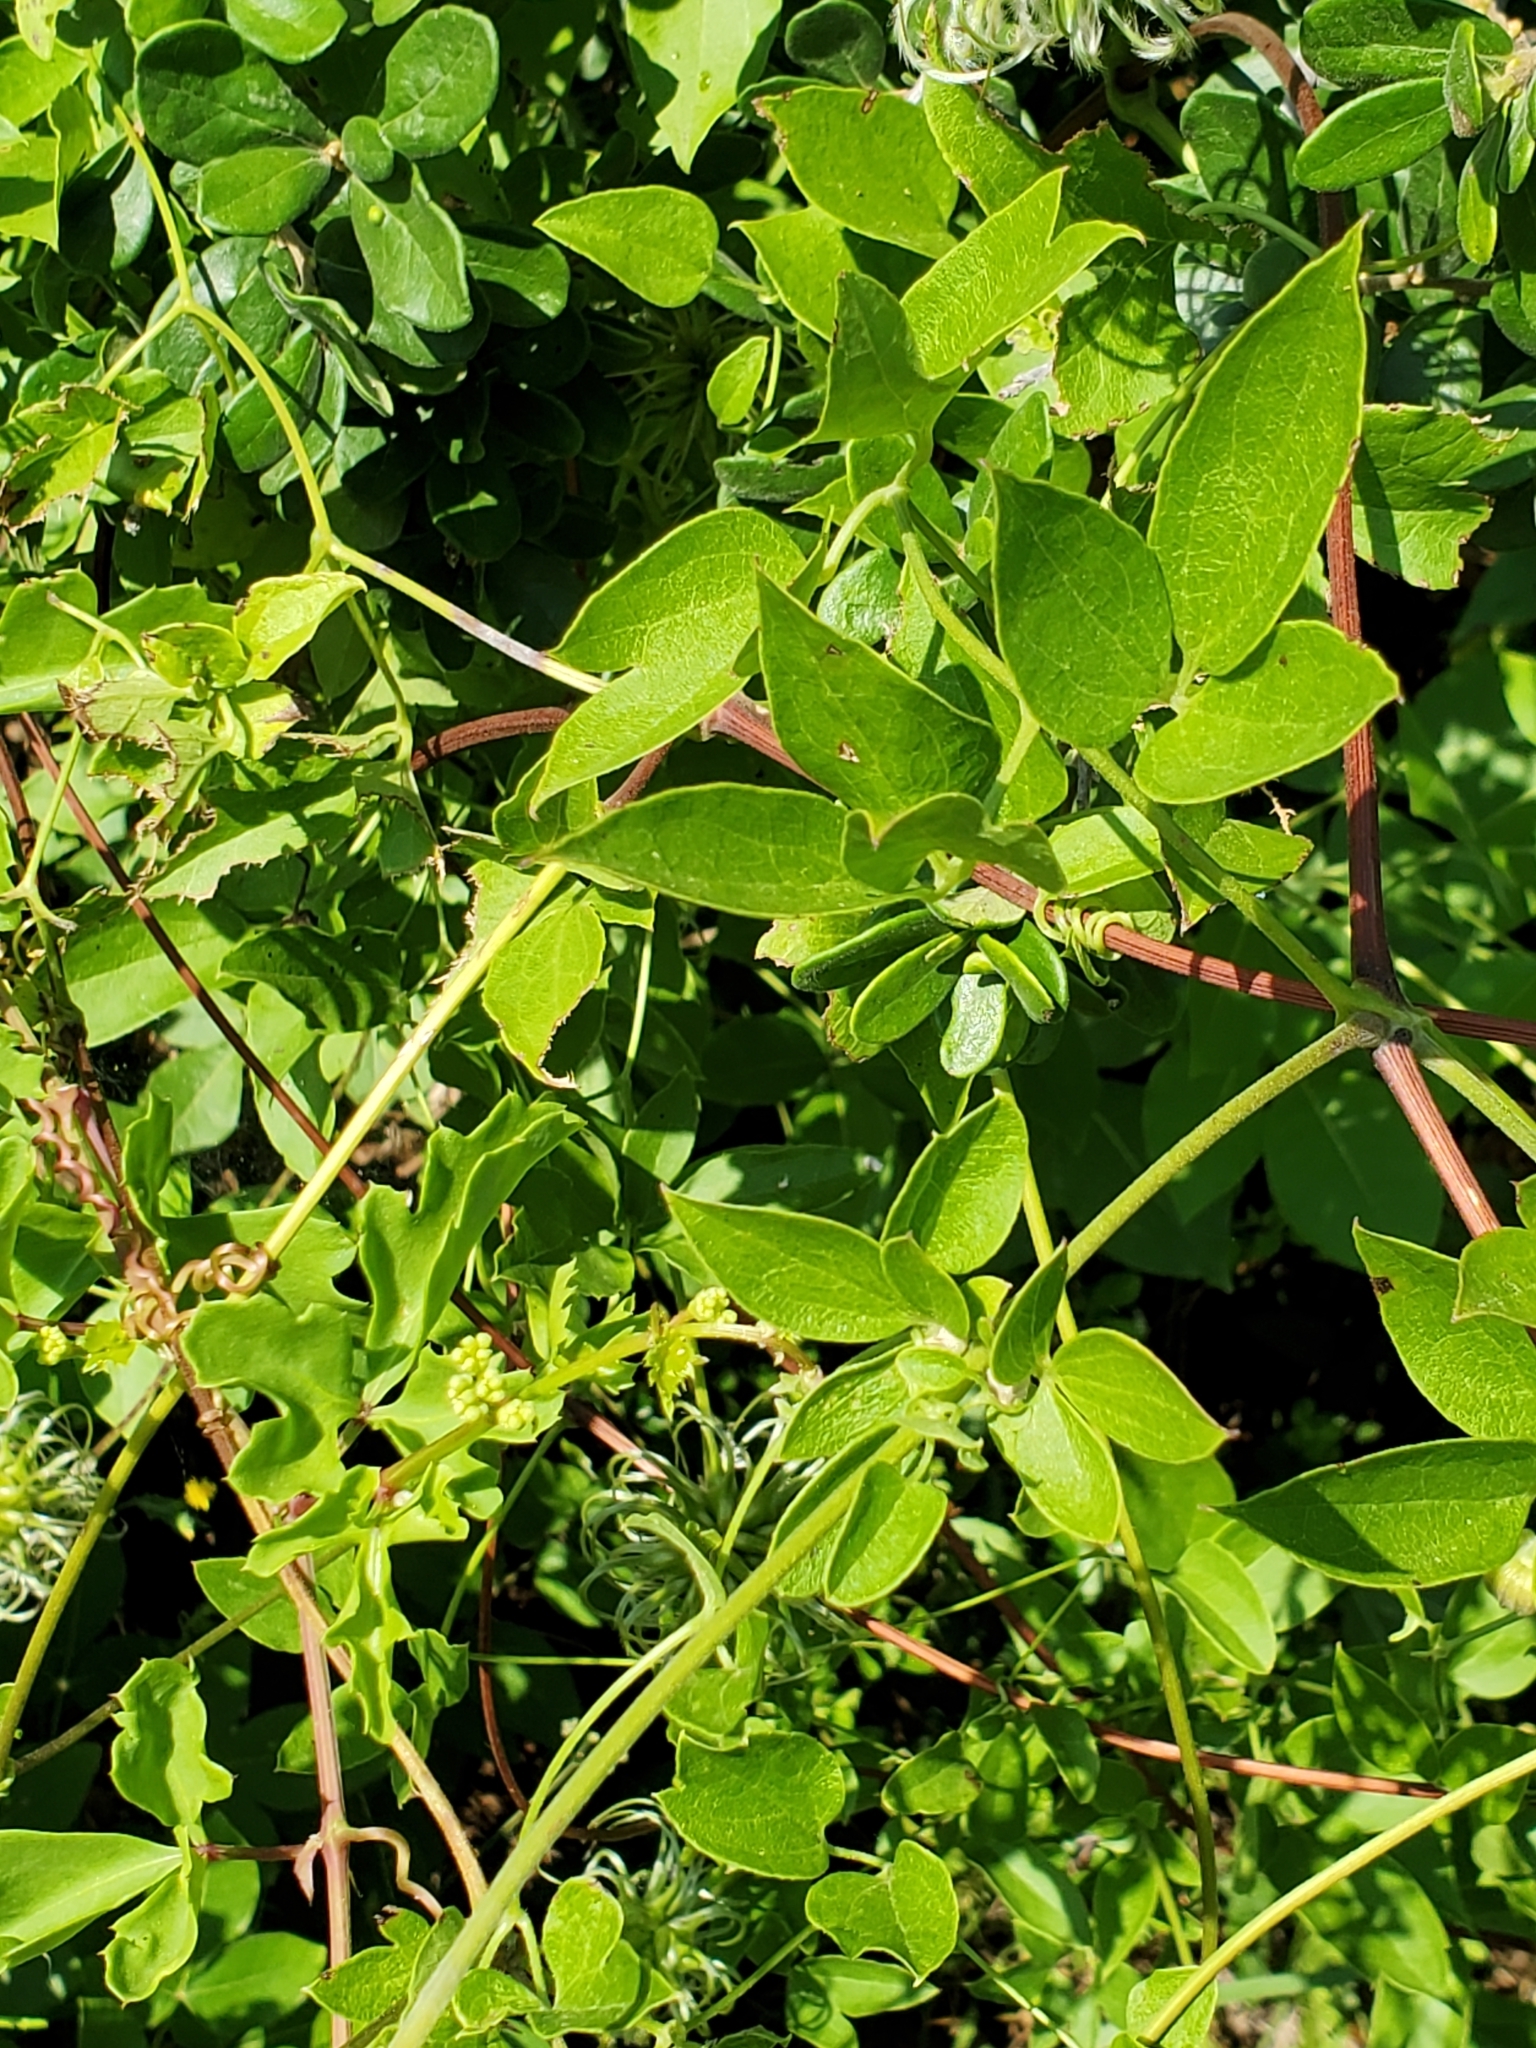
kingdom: Plantae
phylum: Tracheophyta
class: Magnoliopsida
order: Ranunculales
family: Ranunculaceae
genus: Clematis
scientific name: Clematis pitcheri
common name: Bellflower clematis
